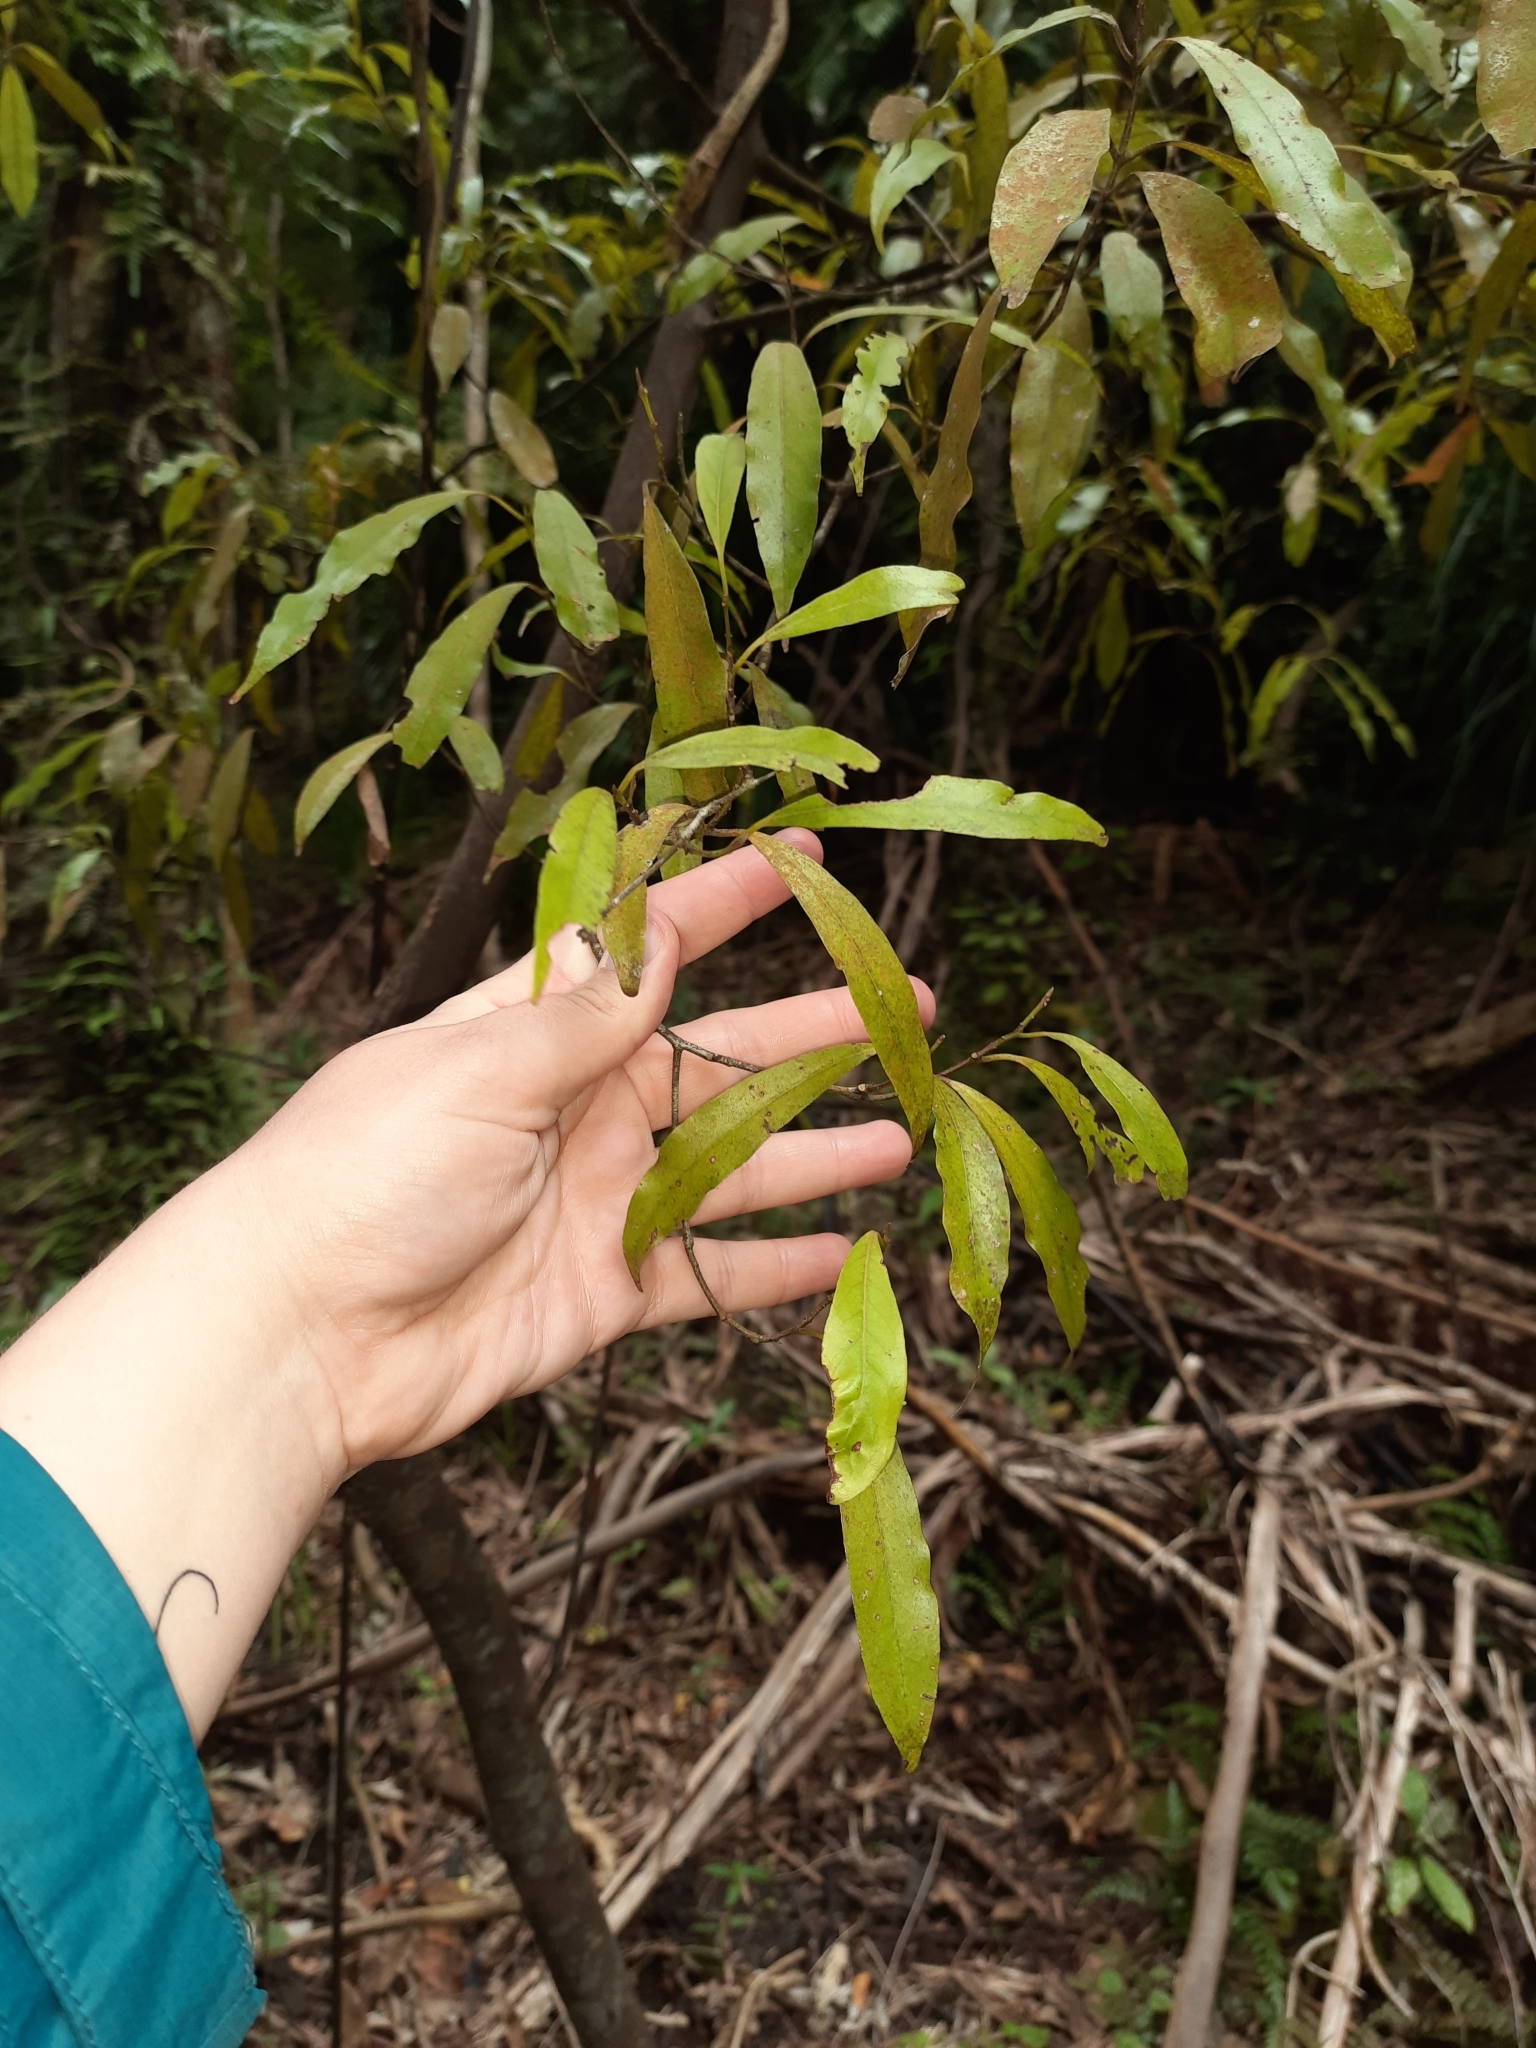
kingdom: Plantae
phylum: Tracheophyta
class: Magnoliopsida
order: Laurales
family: Lauraceae
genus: Beilschmiedia
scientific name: Beilschmiedia tawa
